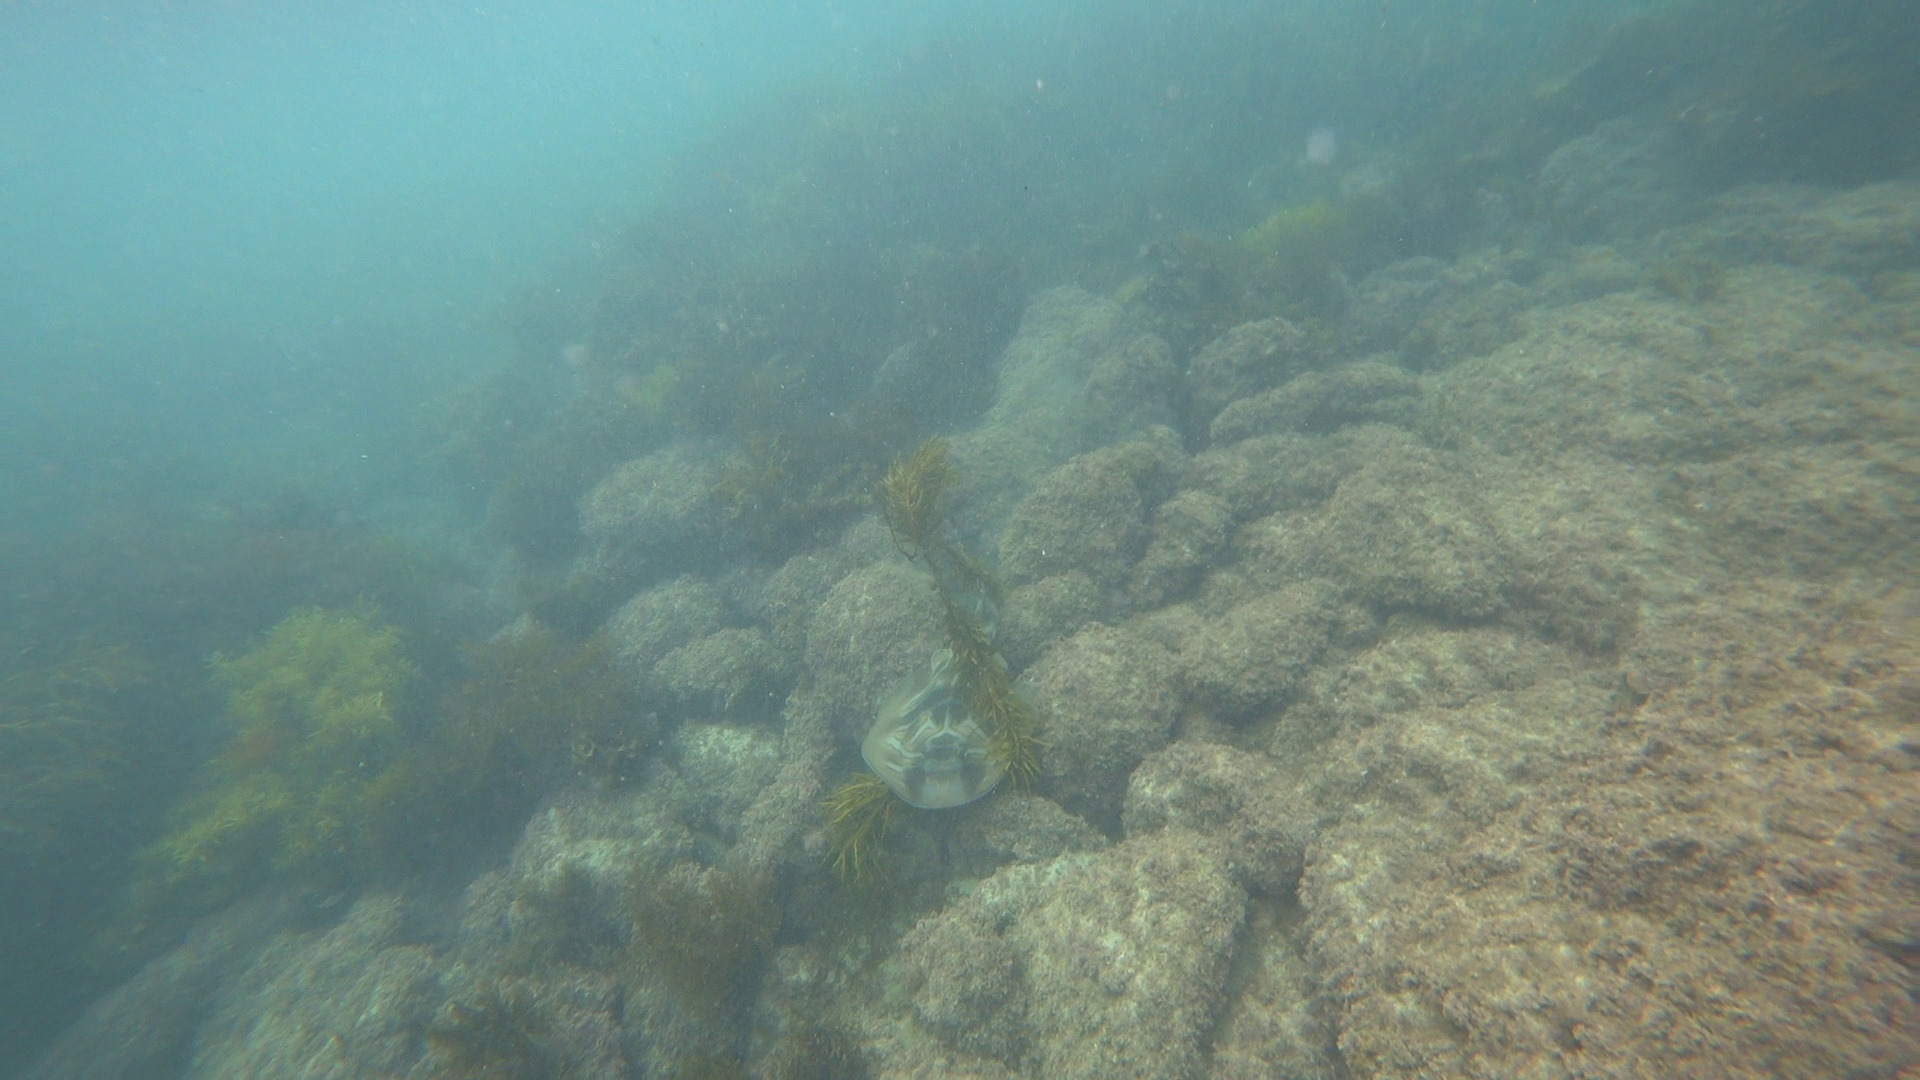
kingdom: Animalia
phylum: Chordata
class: Elasmobranchii
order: Rhinopristiformes
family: Rhinobatidae
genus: Trygonorrhina
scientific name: Trygonorrhina fasciata
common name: Southern fiddler
